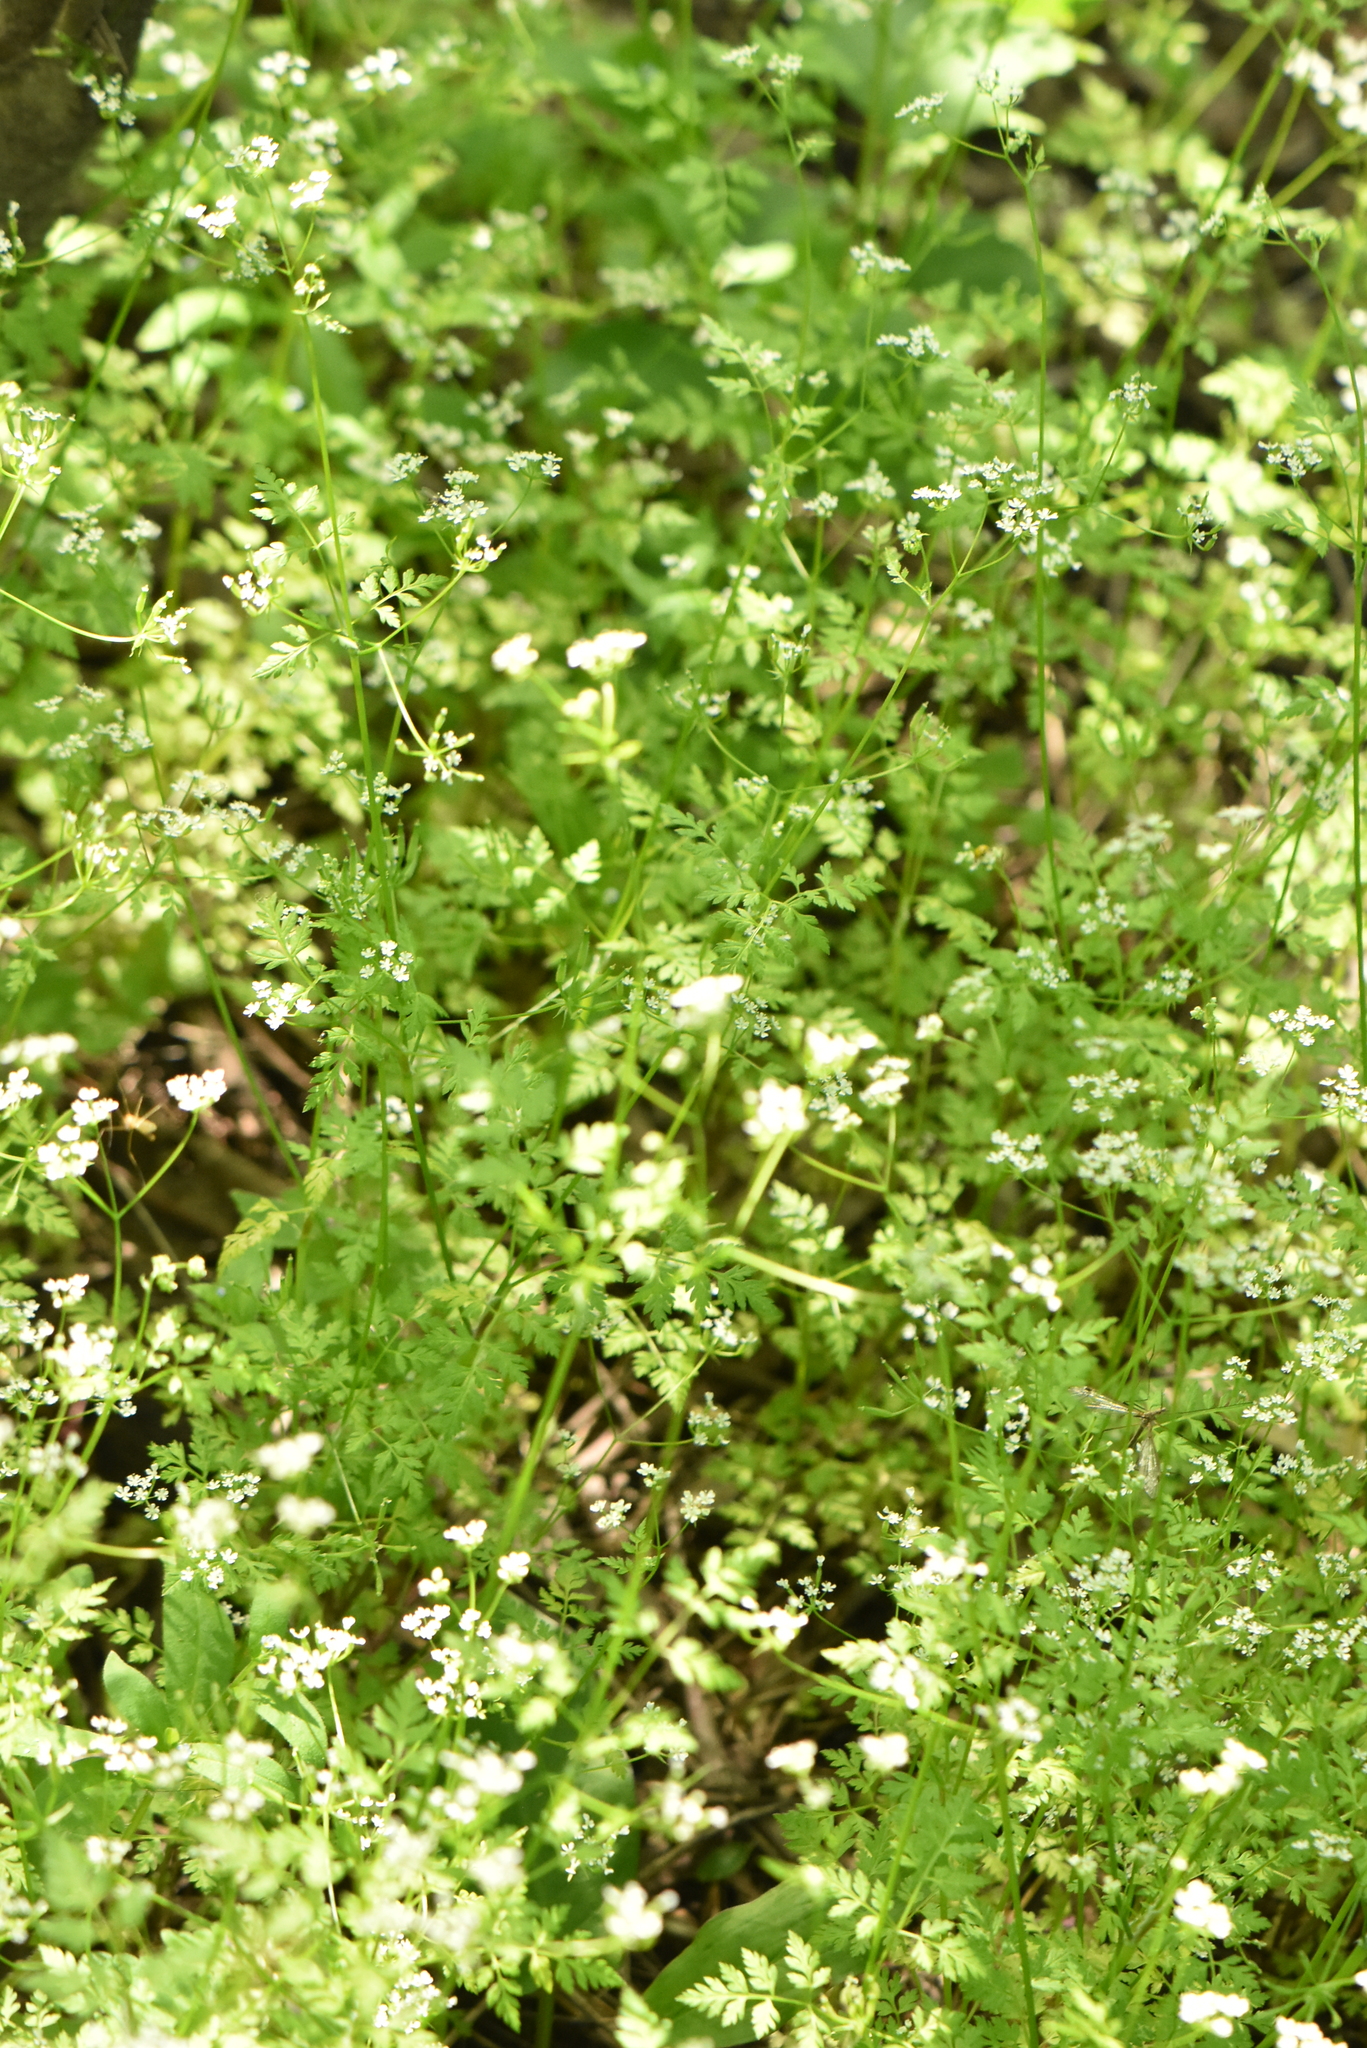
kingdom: Plantae
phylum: Tracheophyta
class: Magnoliopsida
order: Apiales
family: Apiaceae
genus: Anthriscus
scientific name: Anthriscus cerefolium
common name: Garden chervil
